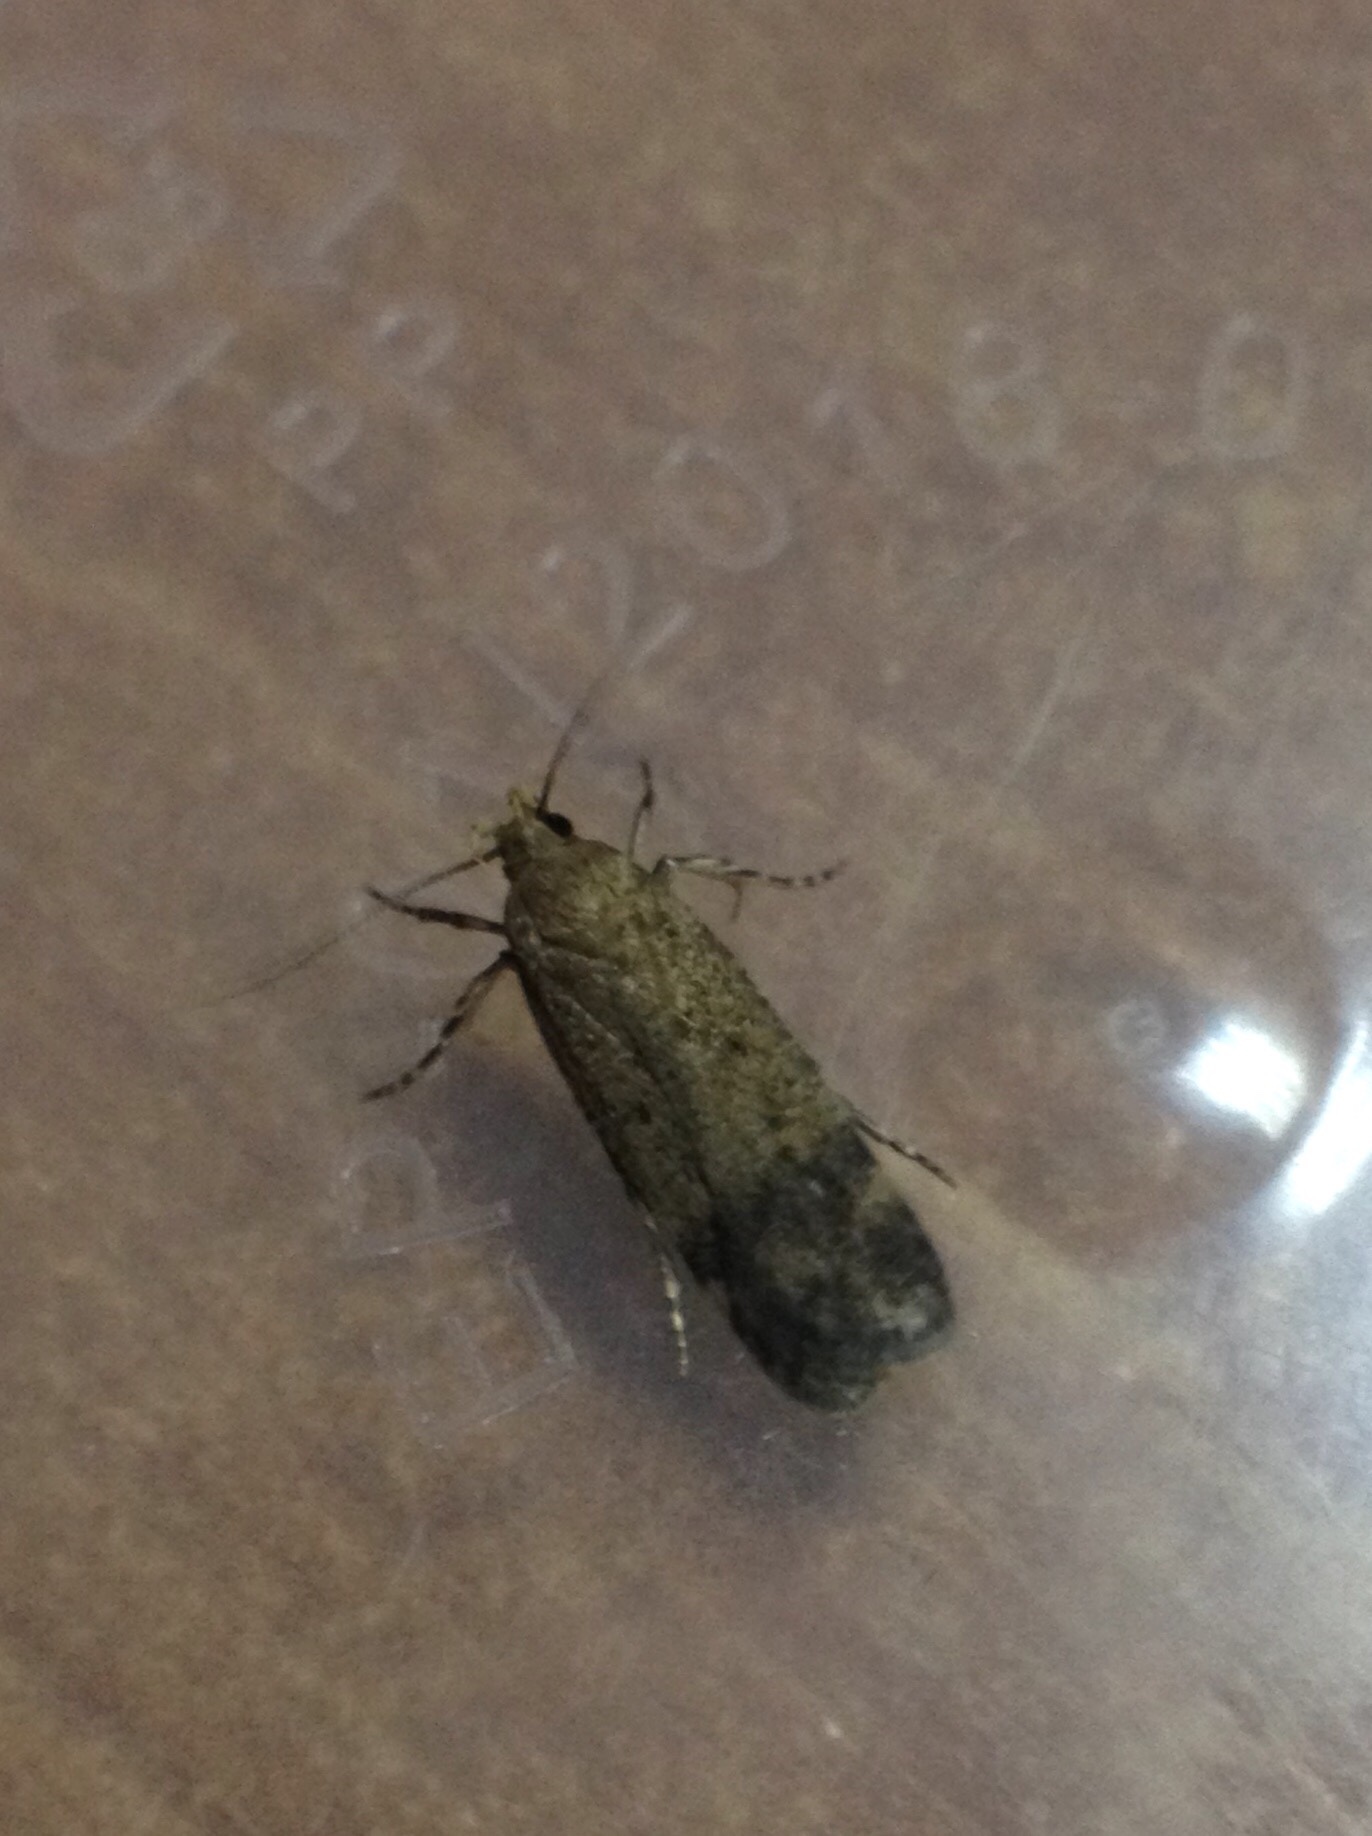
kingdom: Animalia
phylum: Arthropoda
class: Insecta
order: Lepidoptera
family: Gelechiidae
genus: Pexicopia
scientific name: Pexicopia malvella
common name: Hollyhock seed moth
